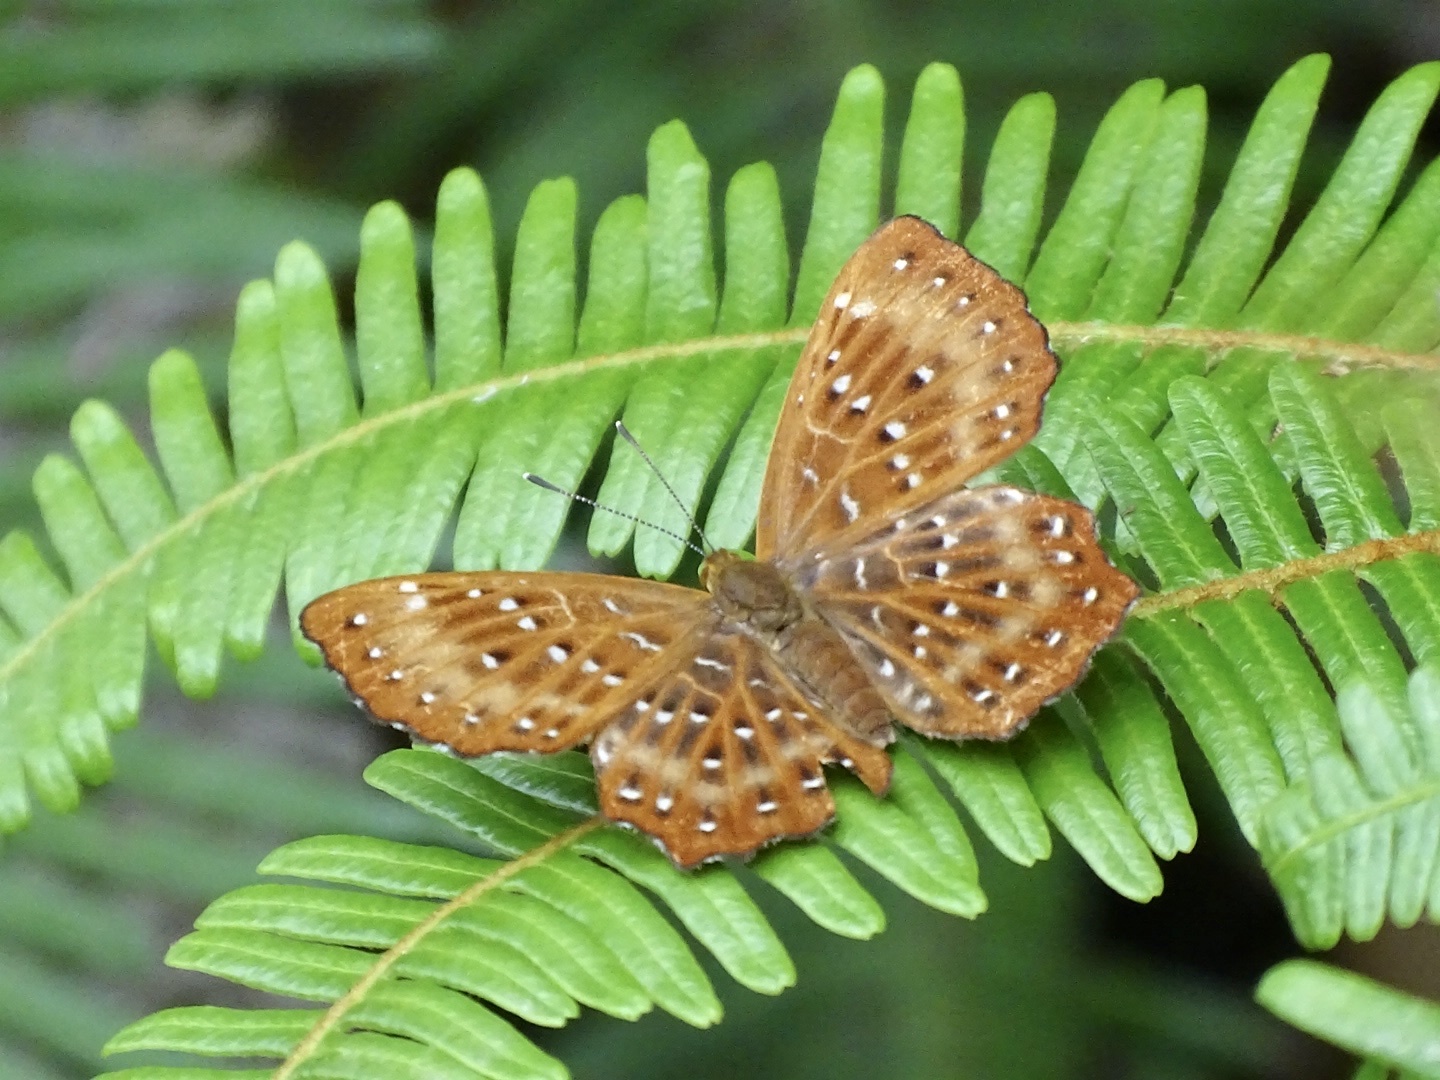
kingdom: Animalia
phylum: Arthropoda
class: Insecta
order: Lepidoptera
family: Riodinidae
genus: Zemeros
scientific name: Zemeros flegyas
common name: Punchinello
